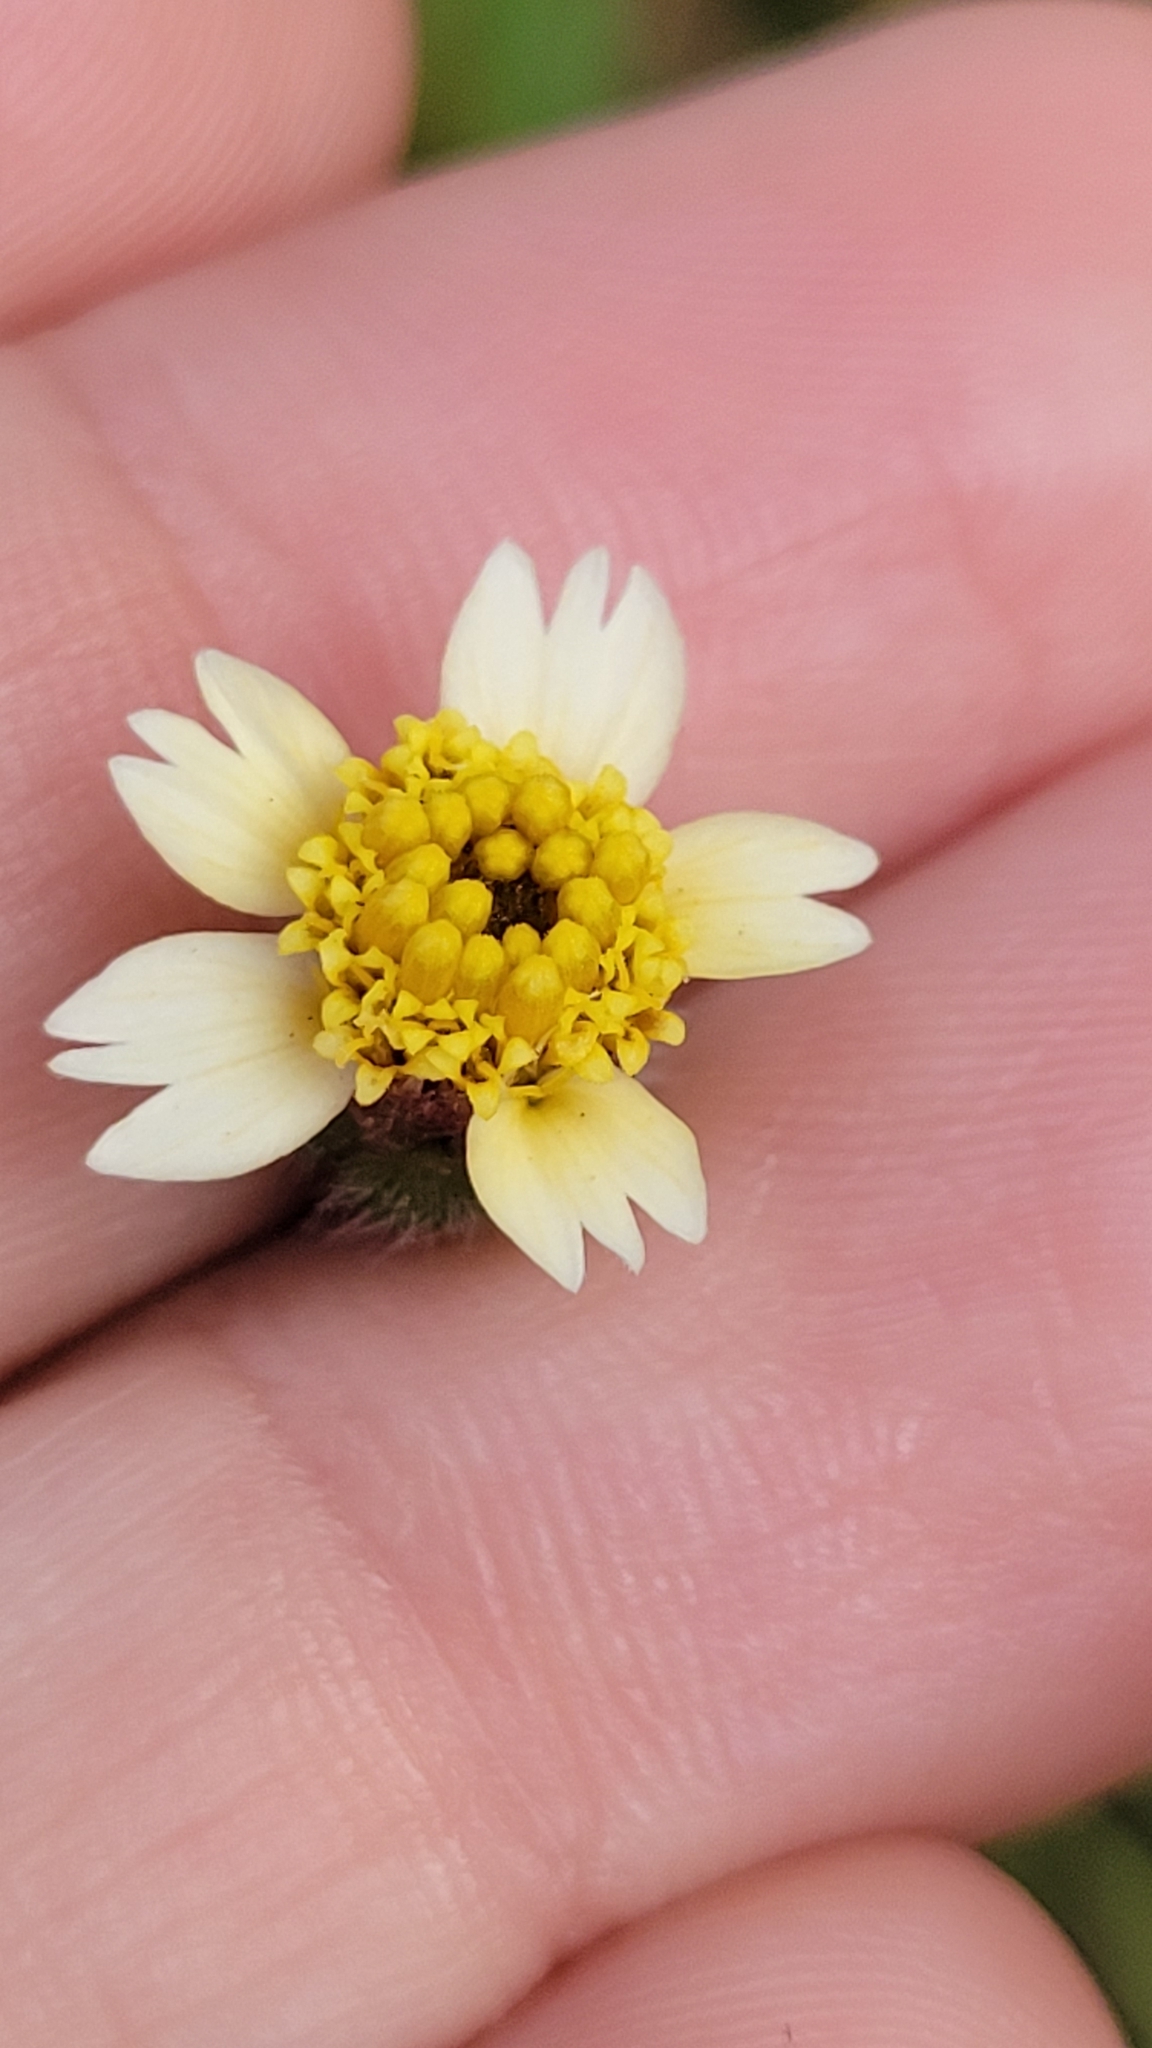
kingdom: Plantae
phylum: Tracheophyta
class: Magnoliopsida
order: Asterales
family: Asteraceae
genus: Tridax
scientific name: Tridax procumbens
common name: Coatbuttons
